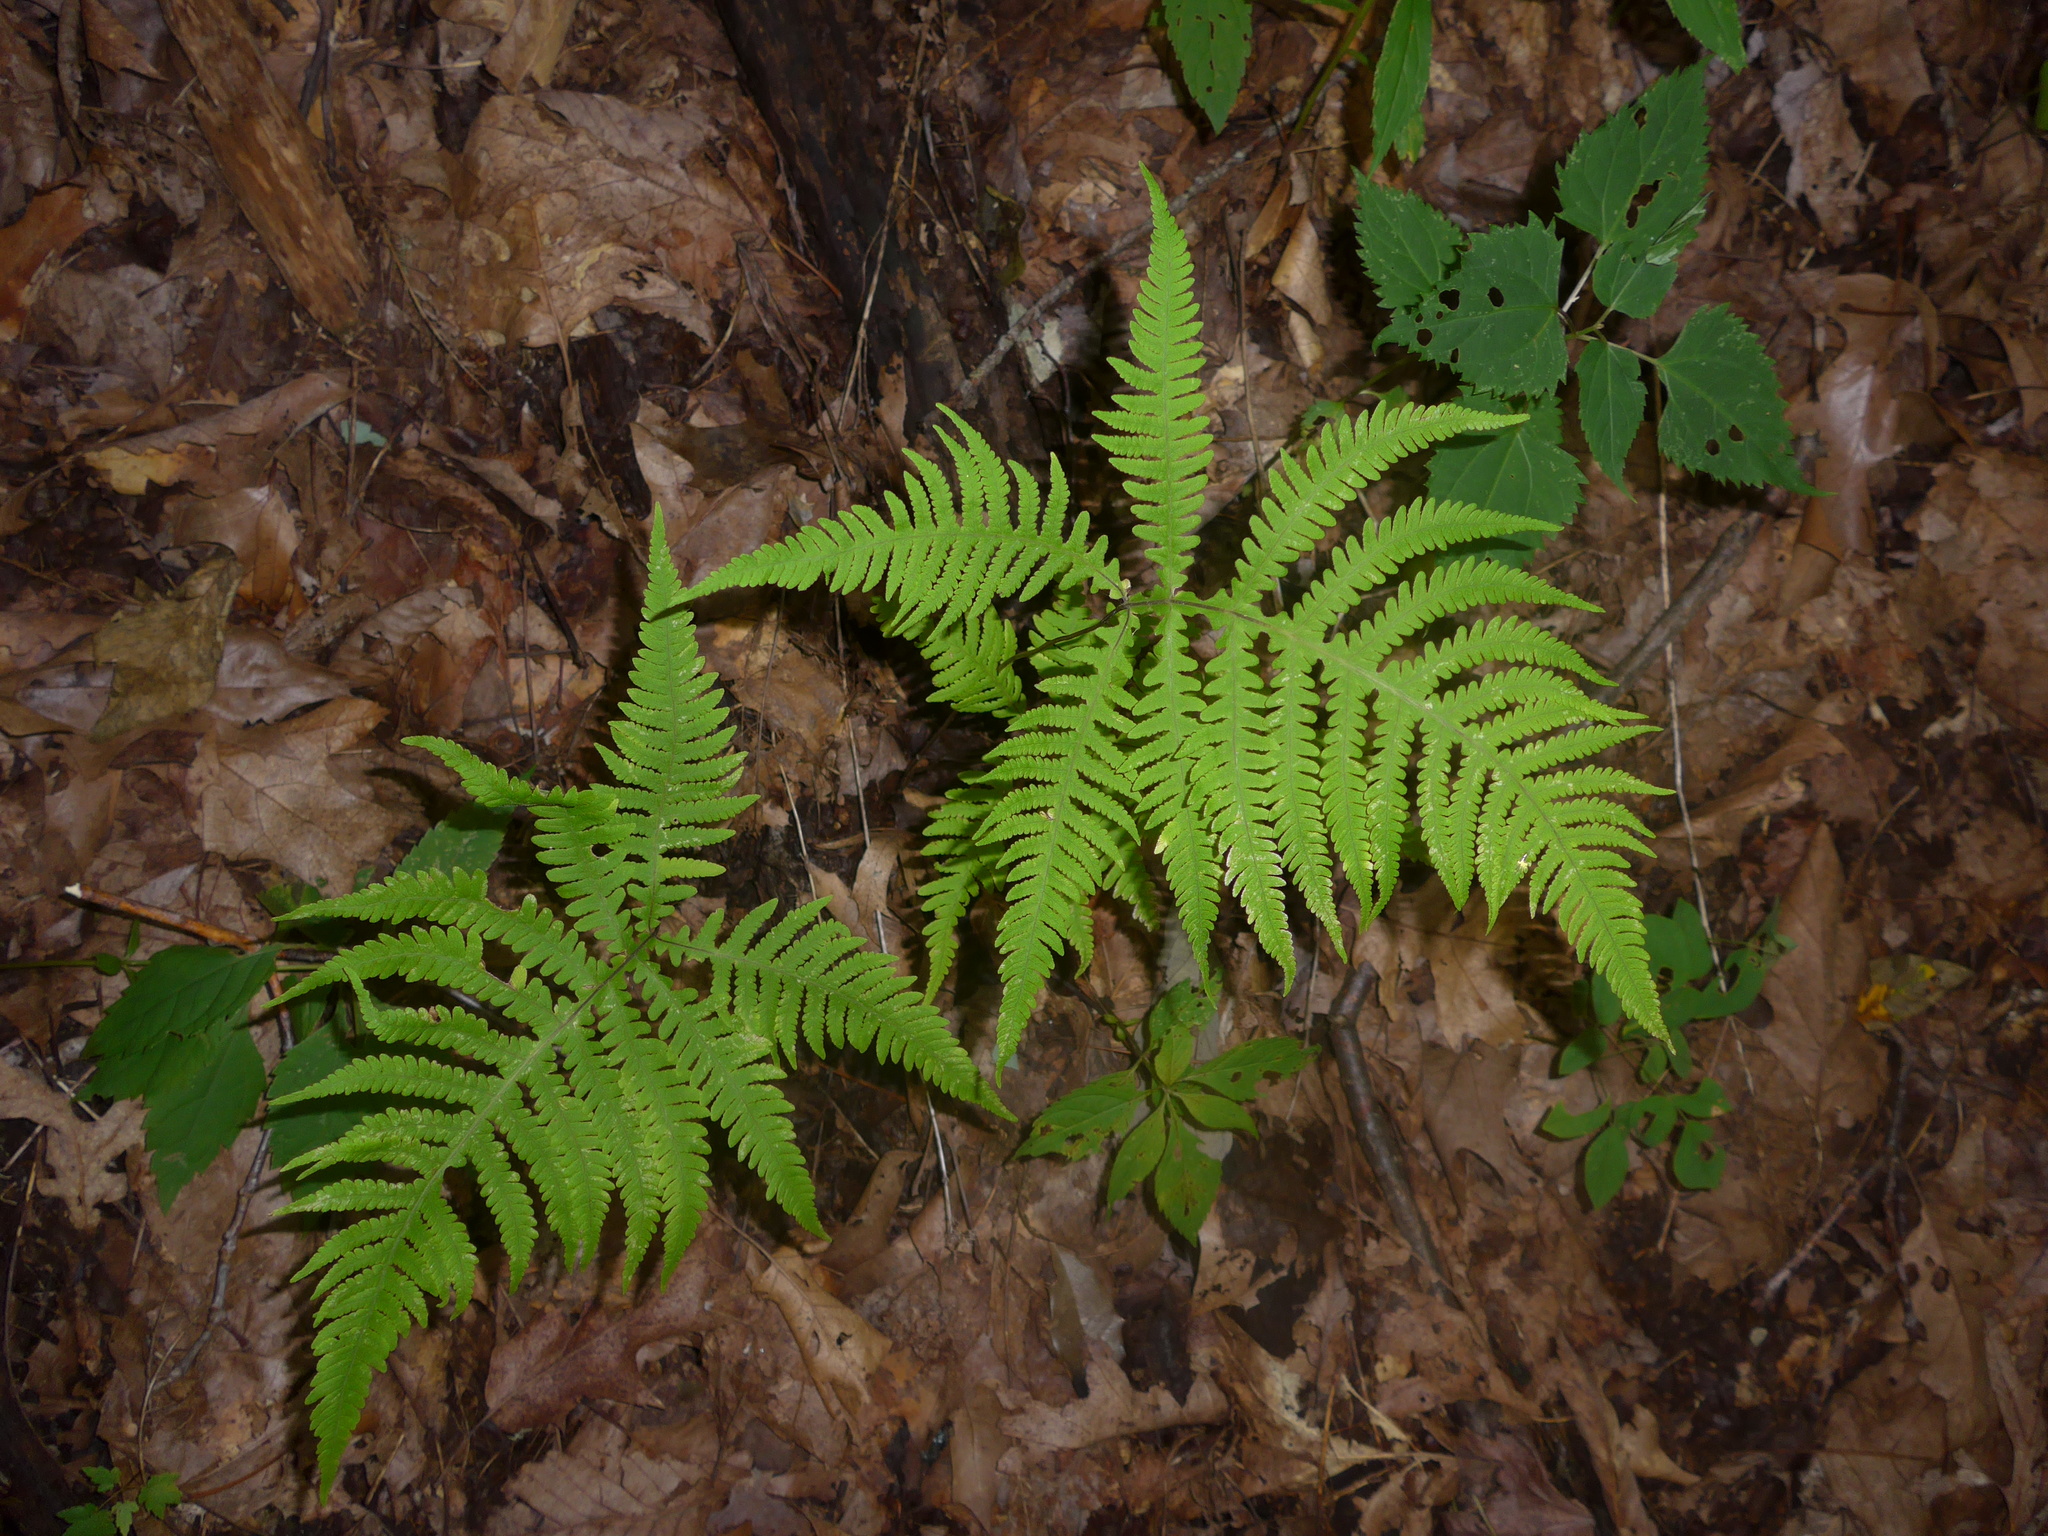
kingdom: Plantae
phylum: Tracheophyta
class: Polypodiopsida
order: Polypodiales
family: Thelypteridaceae
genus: Phegopteris
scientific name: Phegopteris hexagonoptera
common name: Broad beech fern
